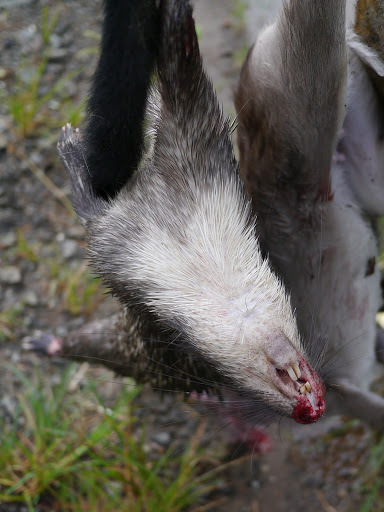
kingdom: Animalia
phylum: Chordata
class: Mammalia
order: Rodentia
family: Hystricidae
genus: Atherurus
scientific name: Atherurus africanus
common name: African brush-tailed porcupine
